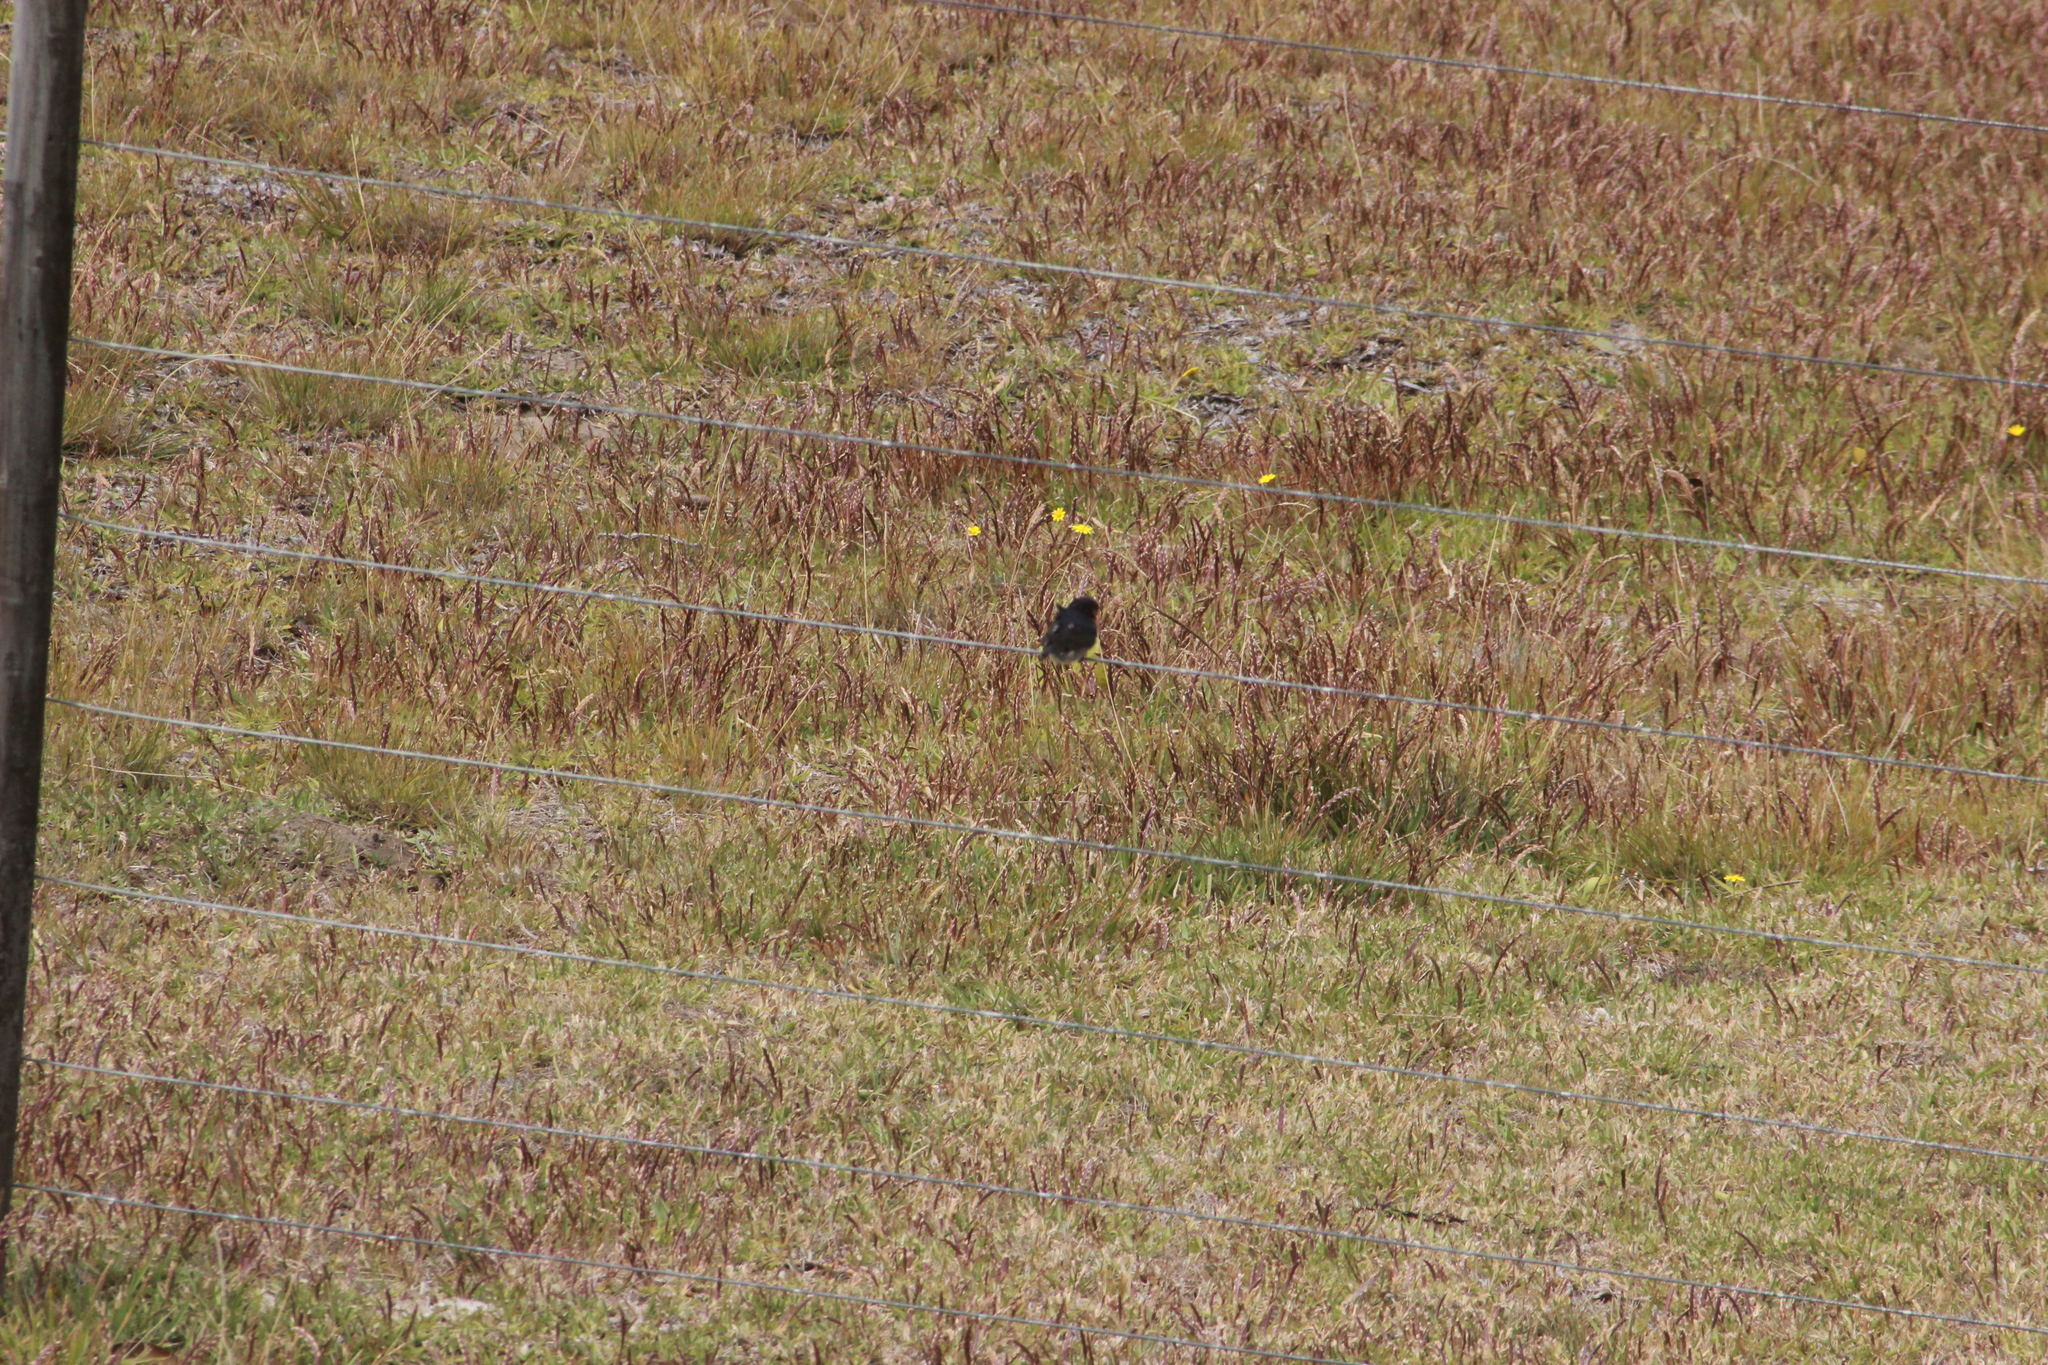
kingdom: Animalia
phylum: Chordata
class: Aves
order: Passeriformes
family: Hirundinidae
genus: Hirundo
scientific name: Hirundo neoxena
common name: Welcome swallow
